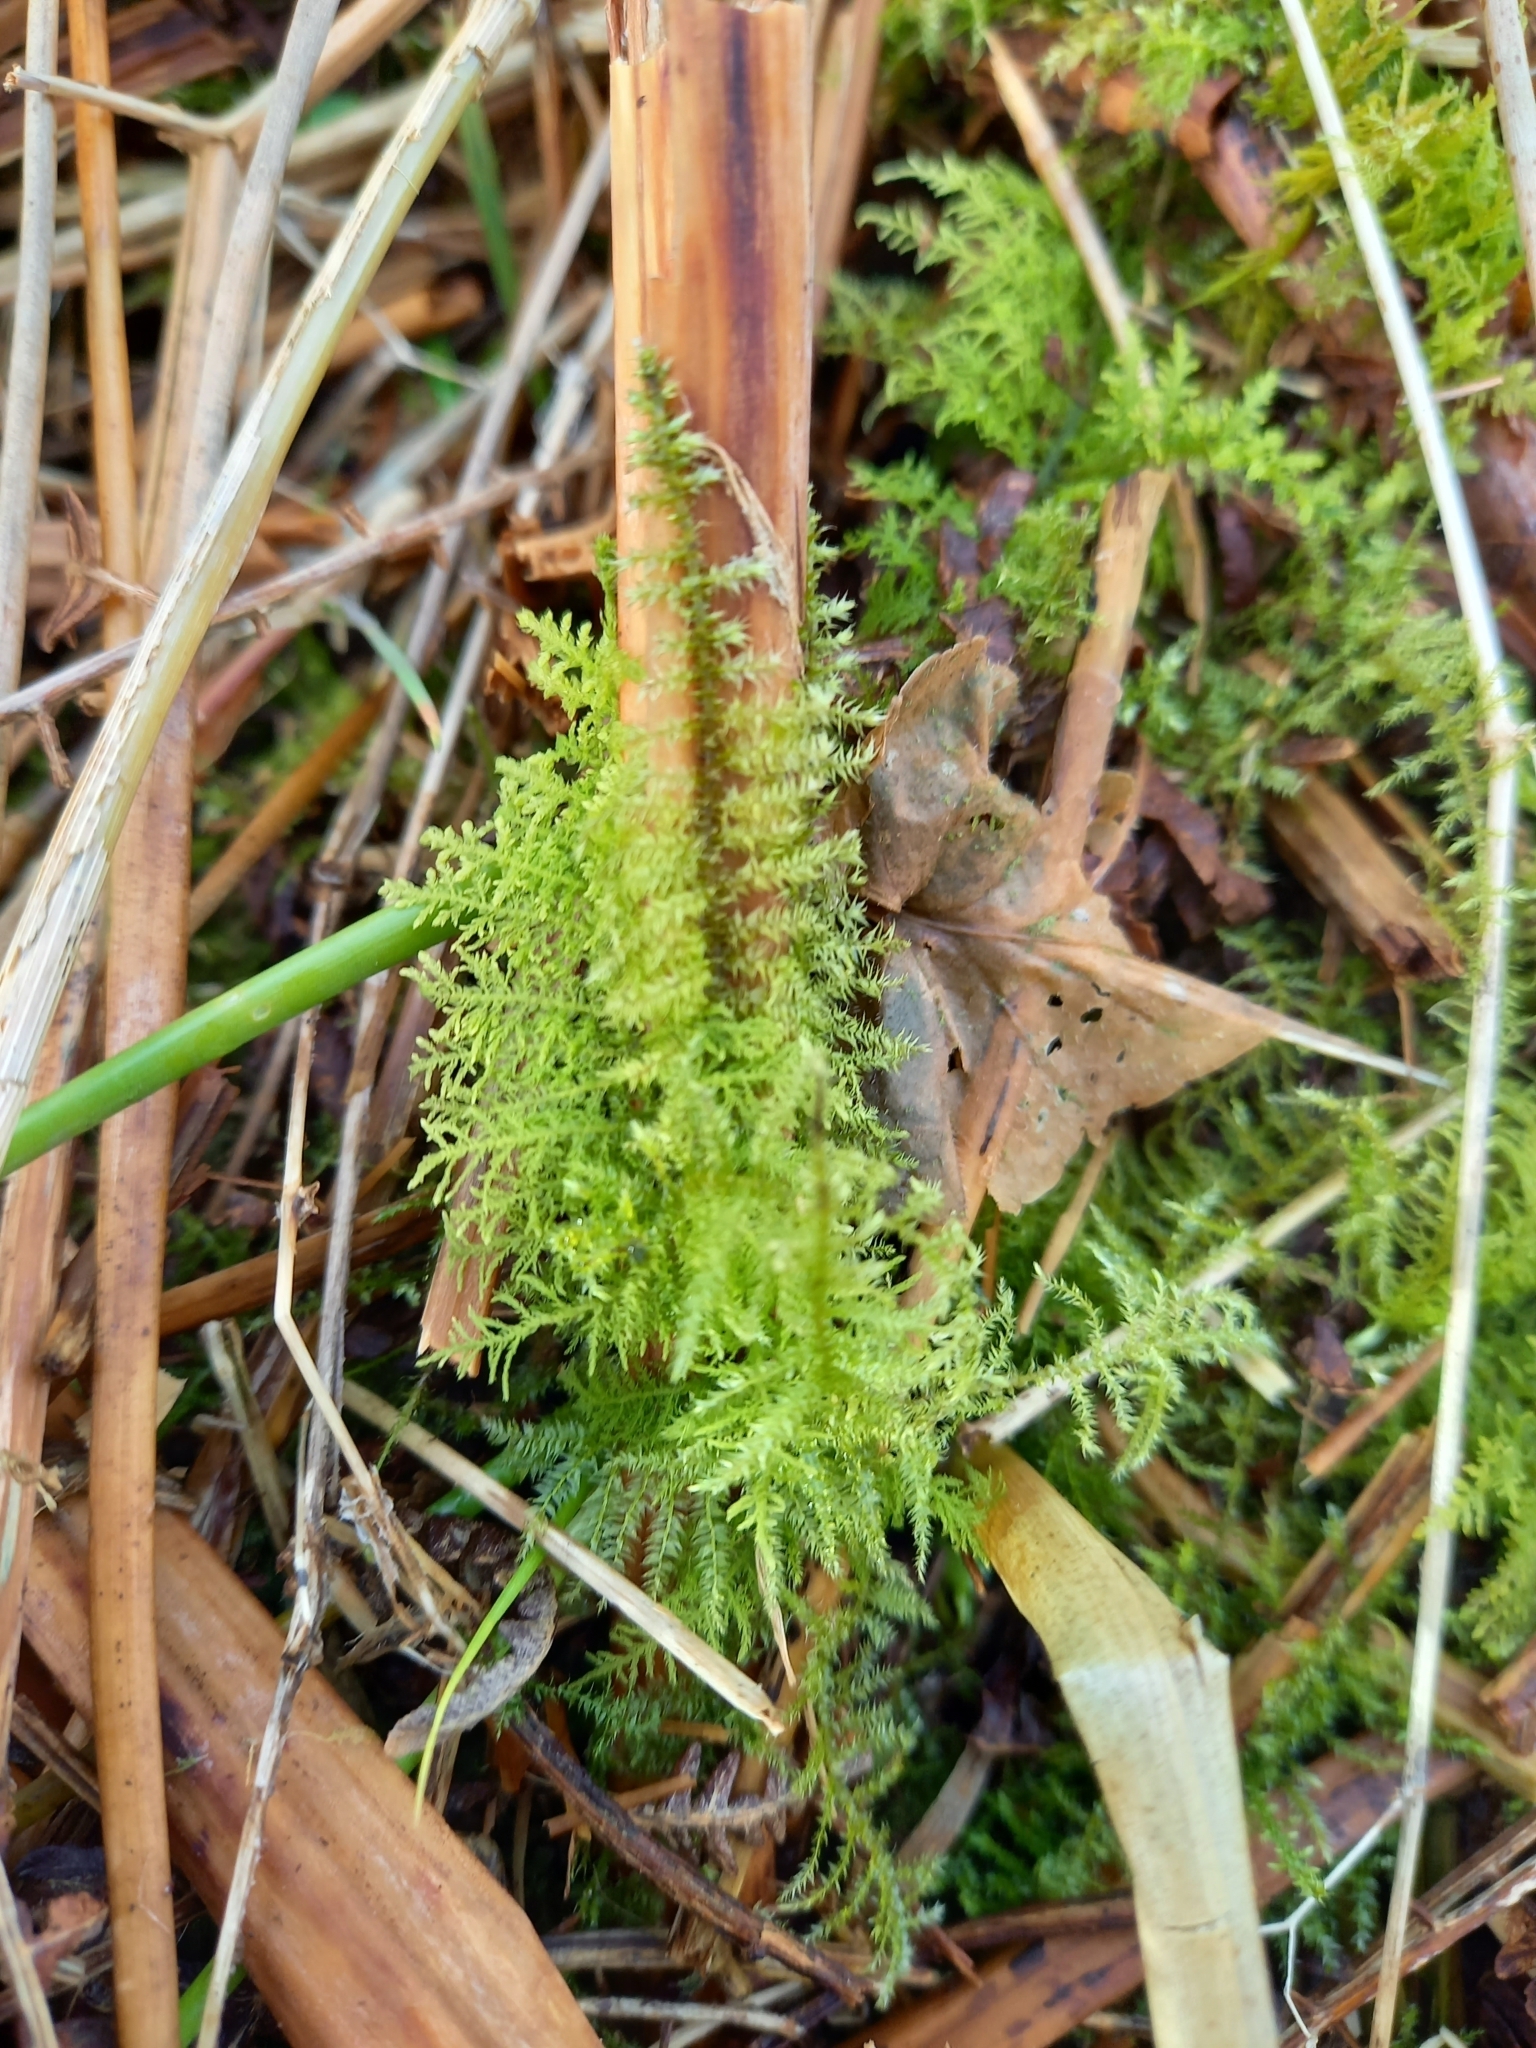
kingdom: Plantae
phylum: Bryophyta
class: Bryopsida
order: Hypnales
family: Thuidiaceae
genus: Thuidium
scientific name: Thuidium tamariscinum
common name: Common tamarisk-moss
